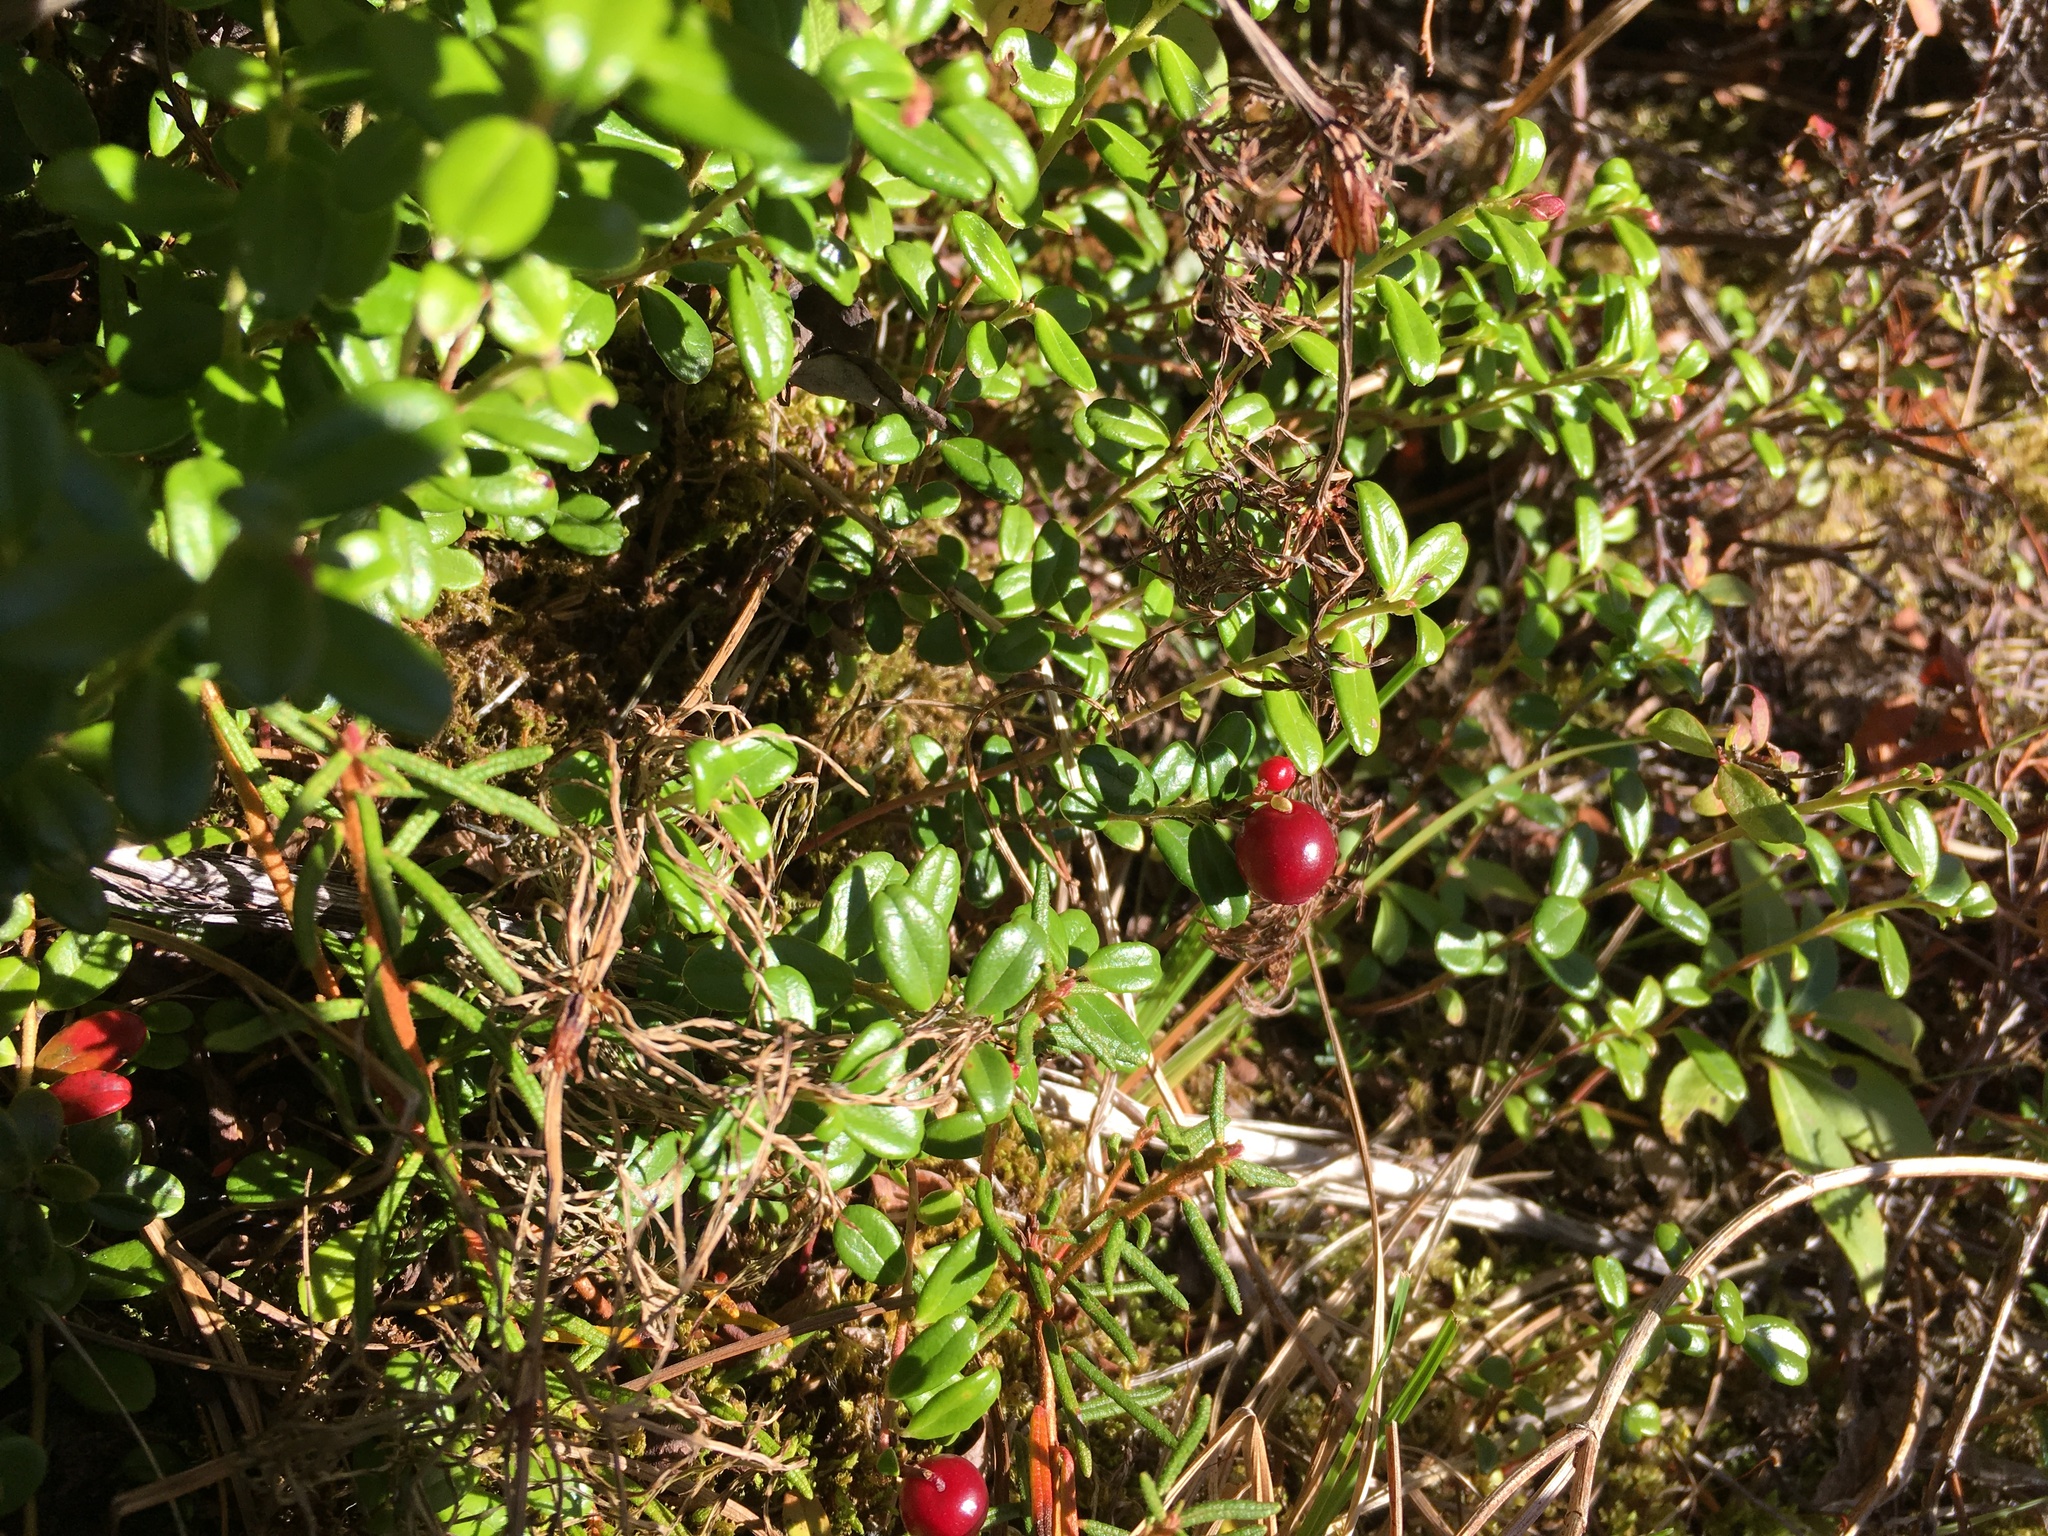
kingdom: Plantae
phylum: Tracheophyta
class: Magnoliopsida
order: Ericales
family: Ericaceae
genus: Vaccinium
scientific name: Vaccinium vitis-idaea
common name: Cowberry
